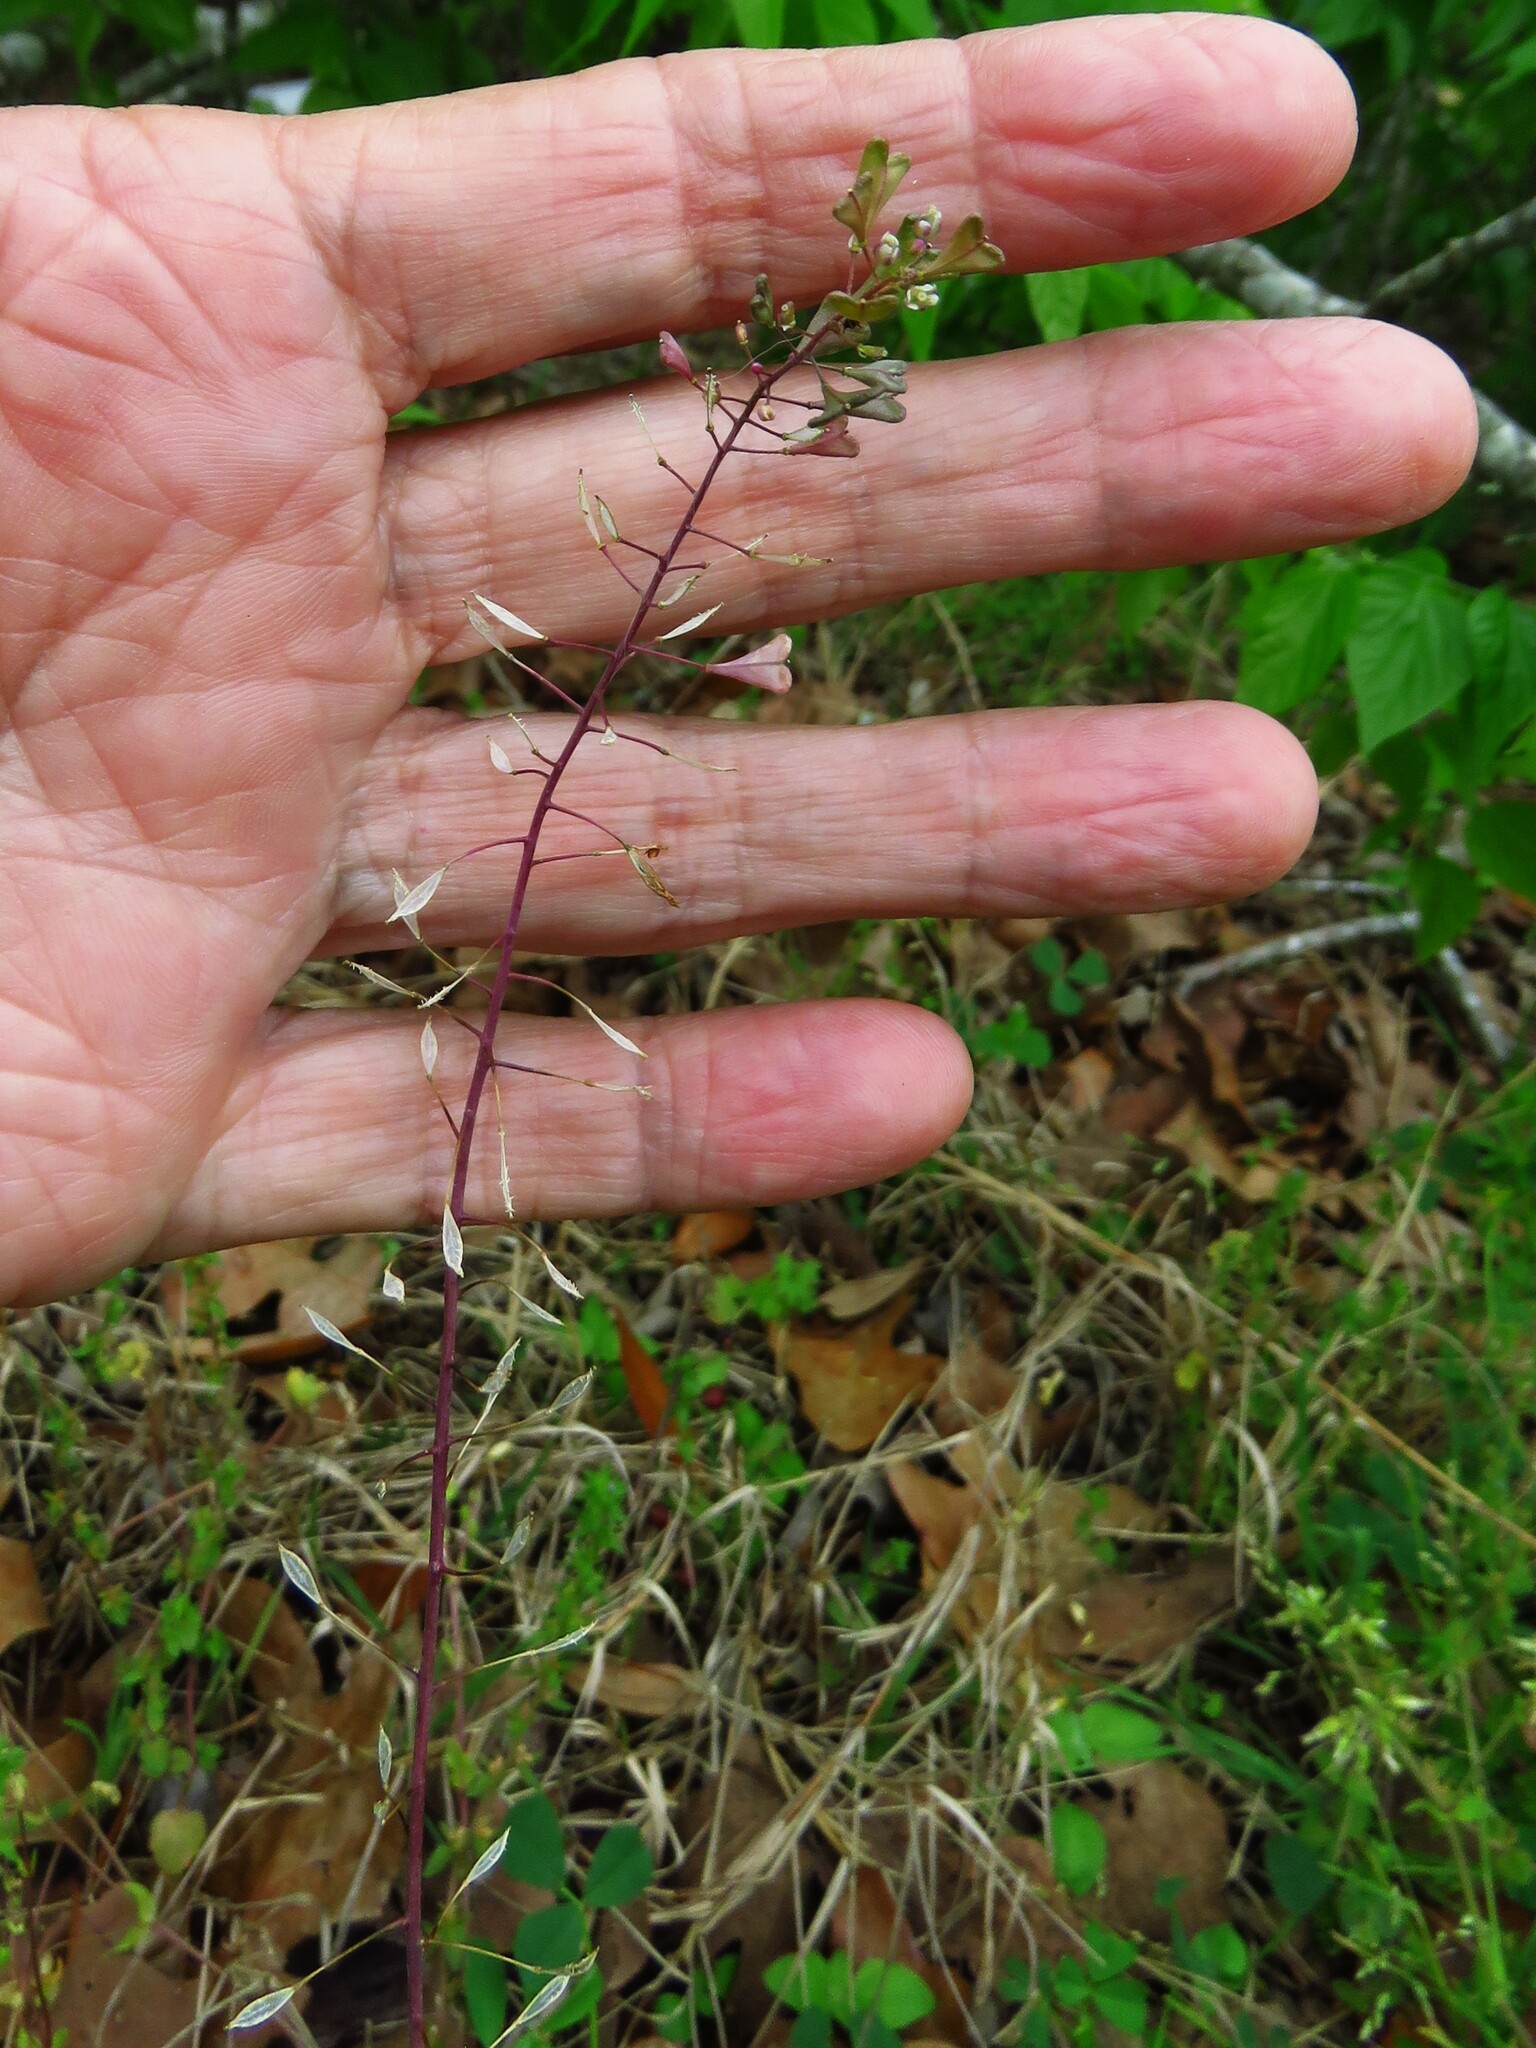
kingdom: Plantae
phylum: Tracheophyta
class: Magnoliopsida
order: Brassicales
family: Brassicaceae
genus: Capsella
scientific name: Capsella bursa-pastoris
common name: Shepherd's purse
